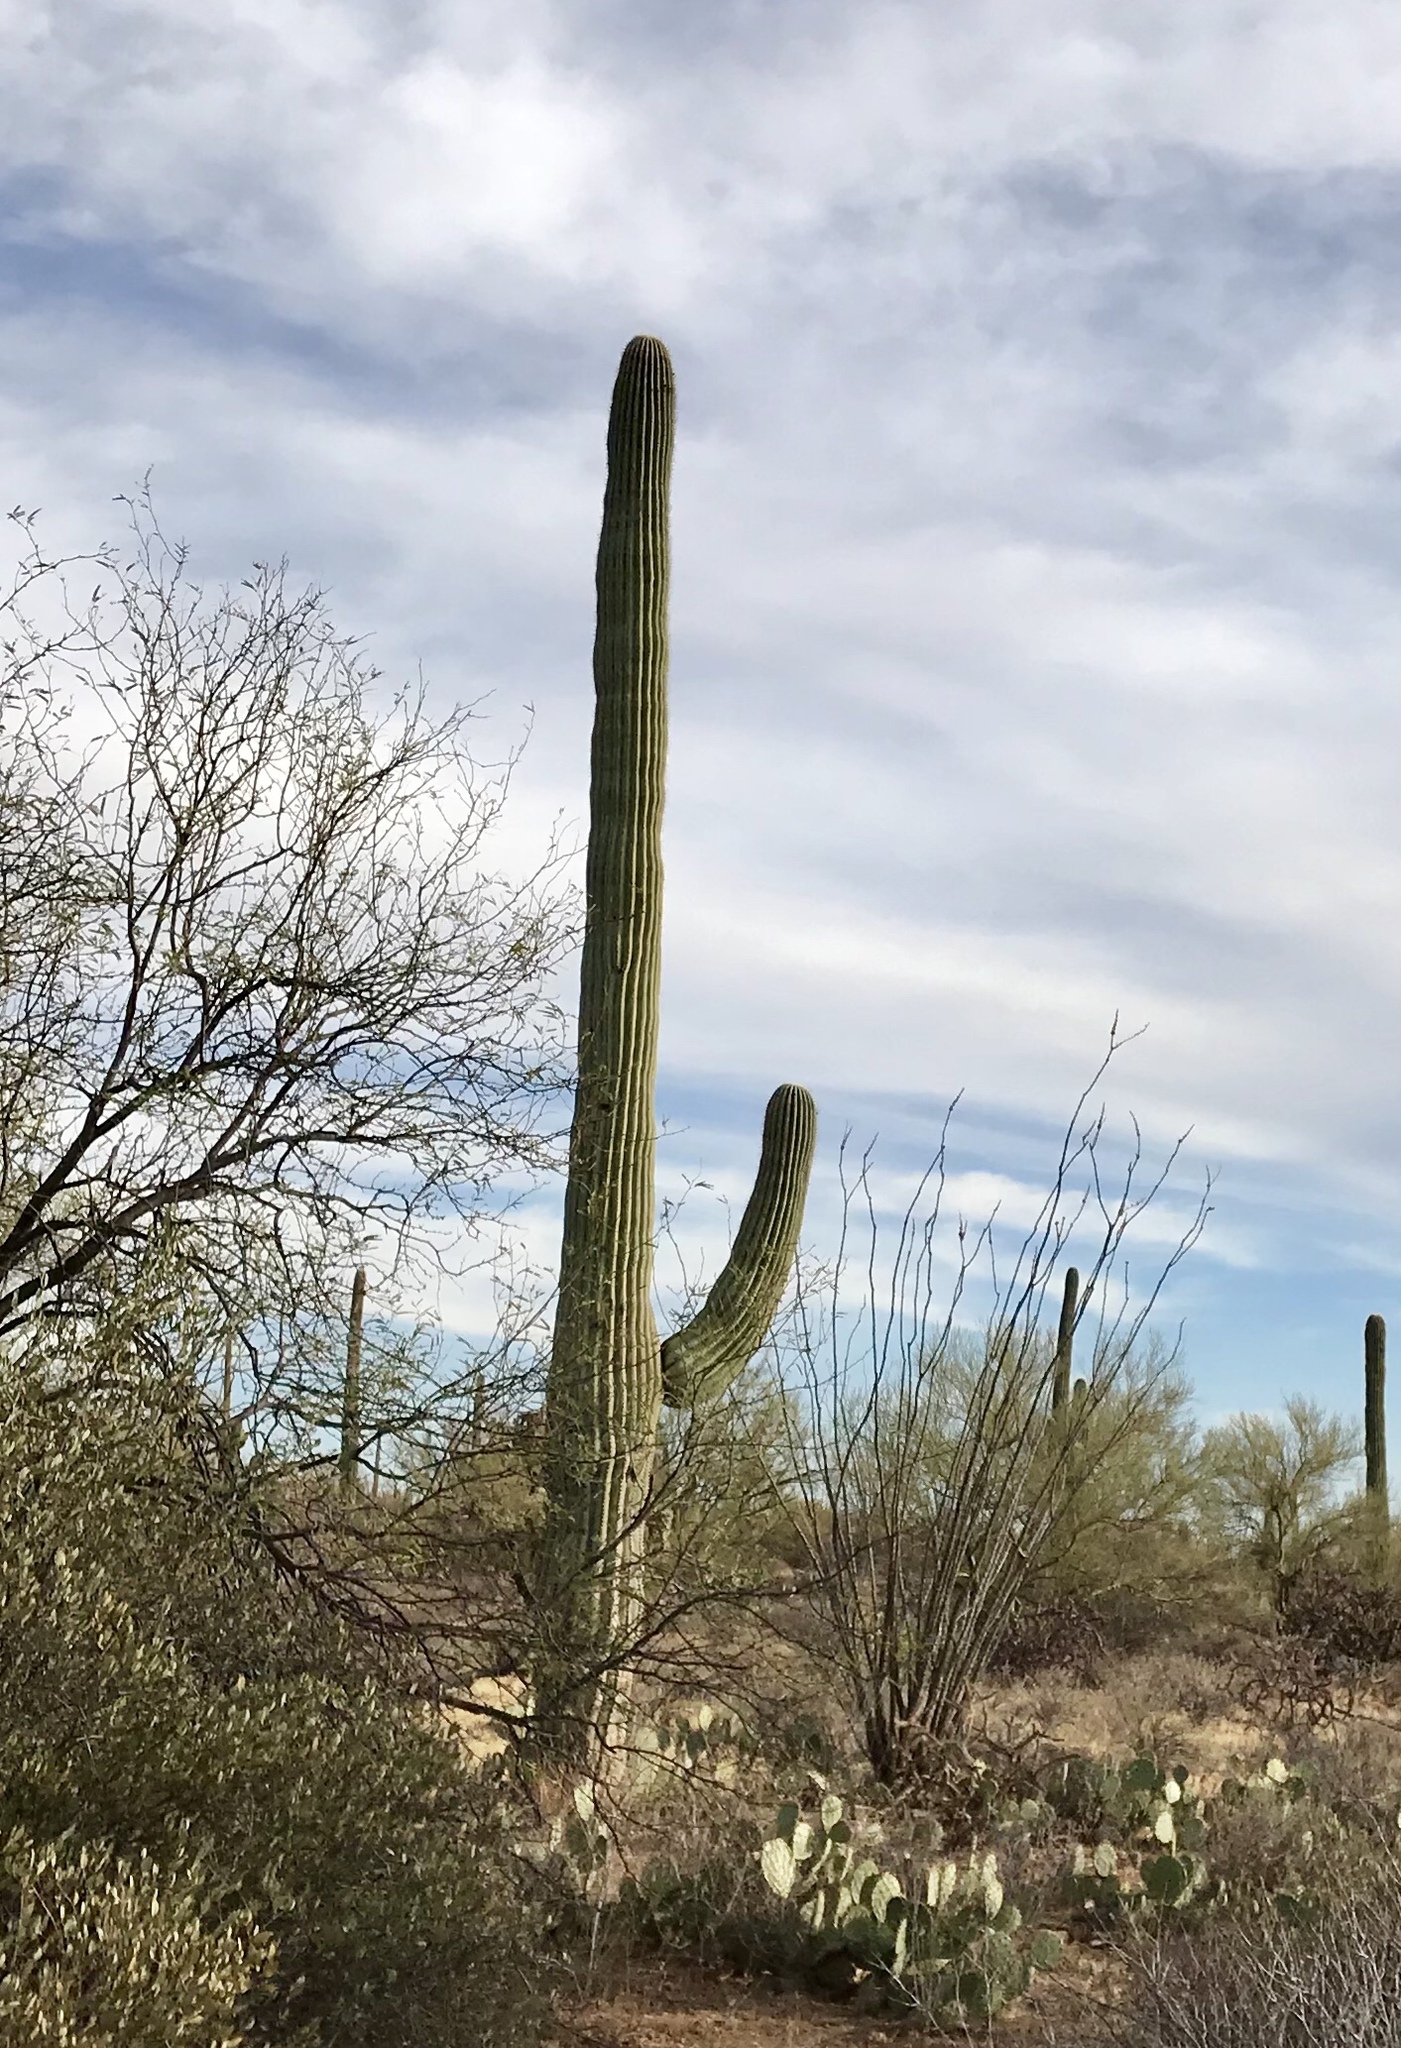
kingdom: Plantae
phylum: Tracheophyta
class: Magnoliopsida
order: Caryophyllales
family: Cactaceae
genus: Carnegiea
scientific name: Carnegiea gigantea
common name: Saguaro
